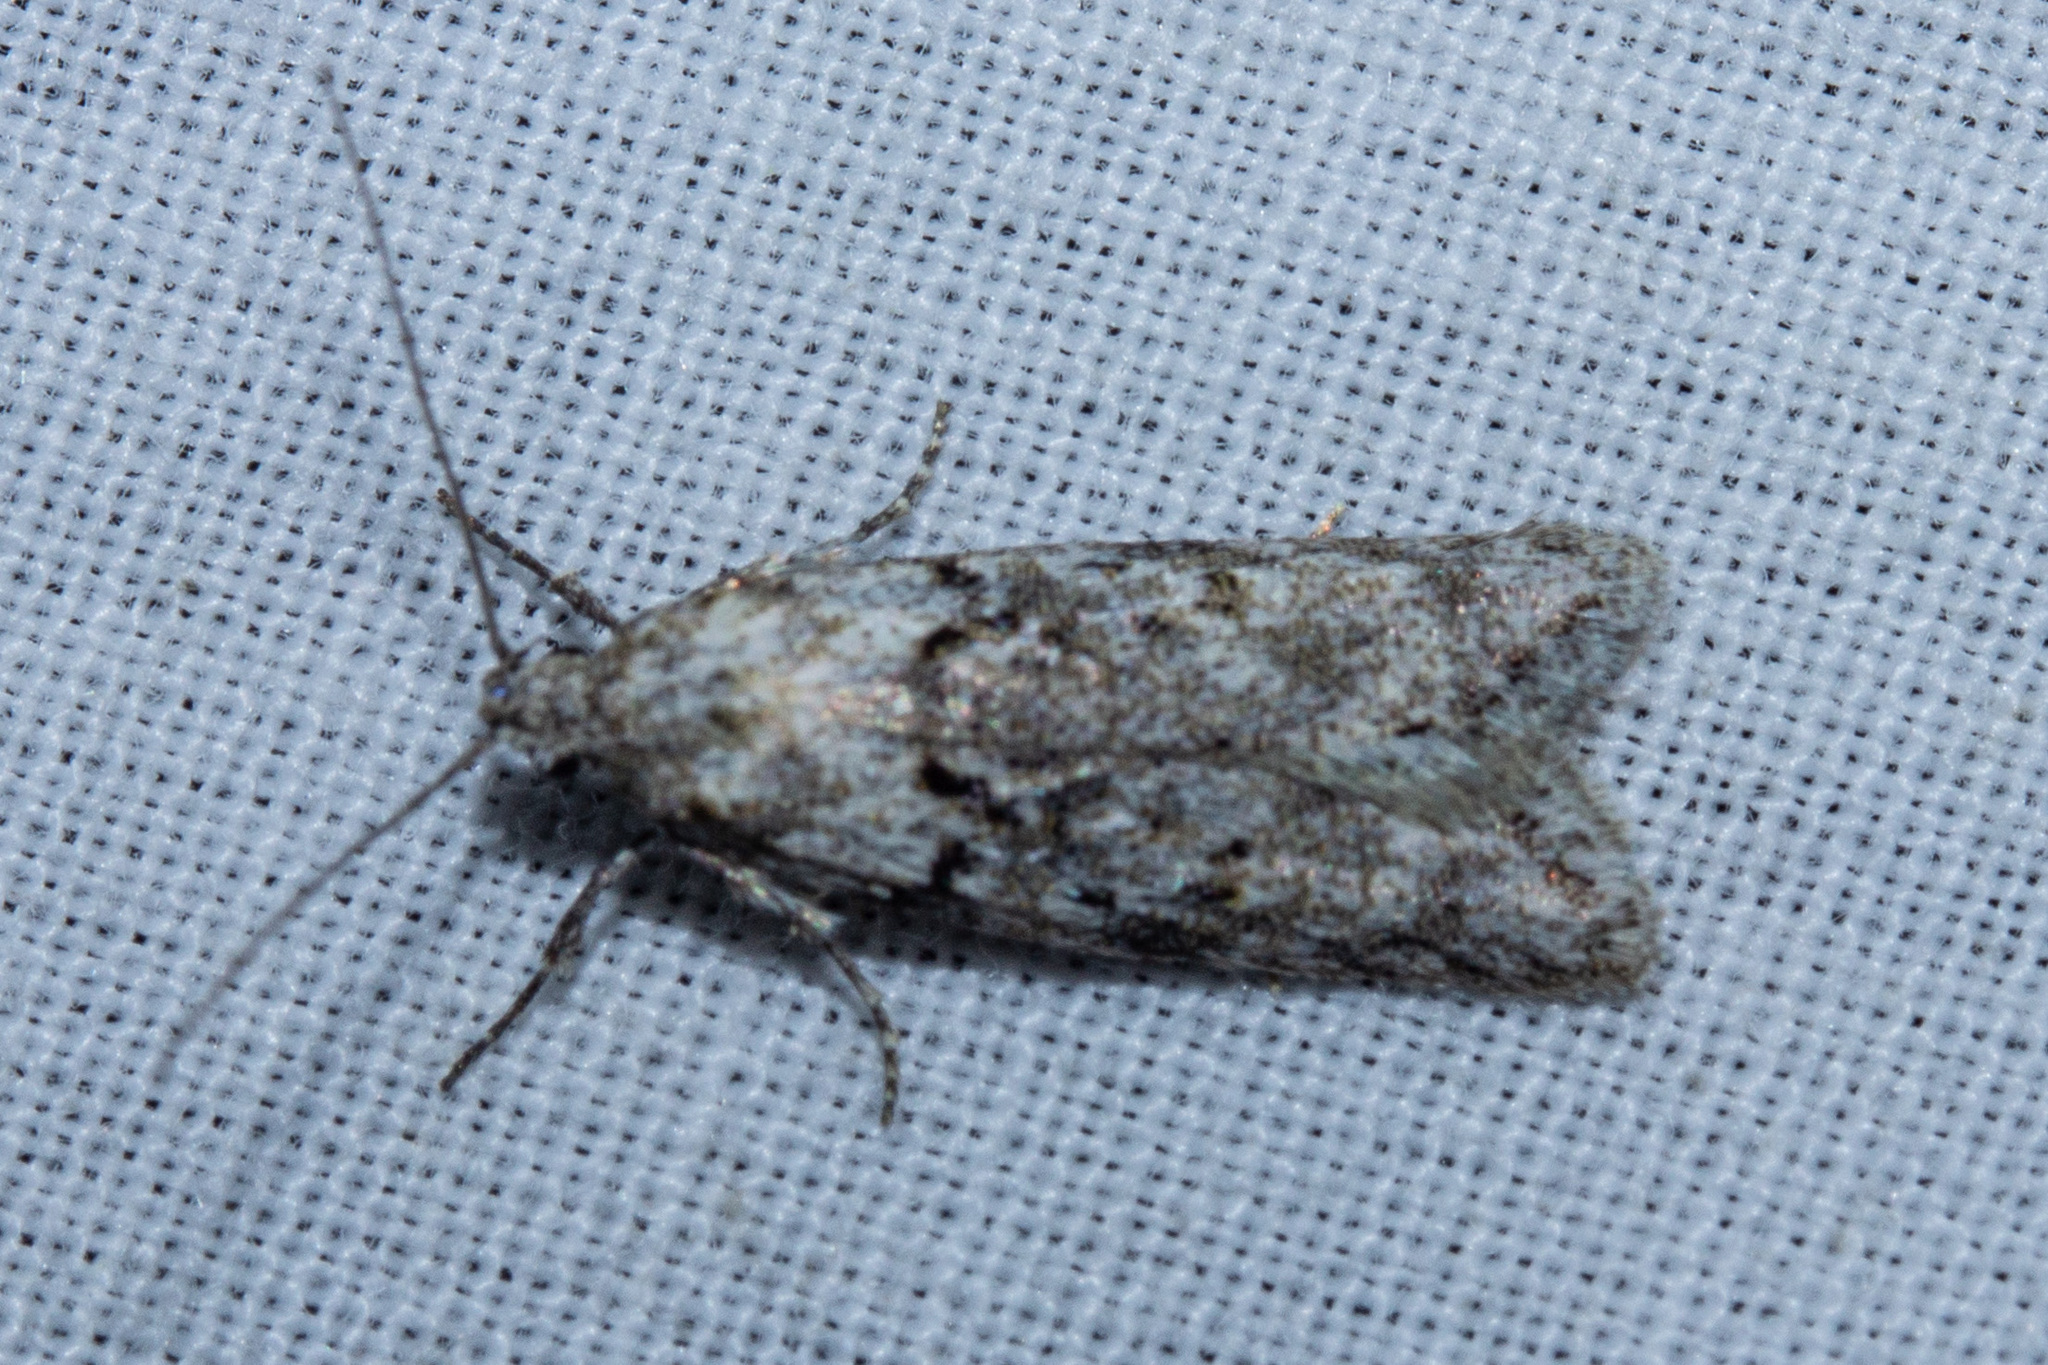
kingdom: Animalia
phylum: Arthropoda
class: Insecta
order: Lepidoptera
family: Oecophoridae
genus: Izatha
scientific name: Izatha convulsella
